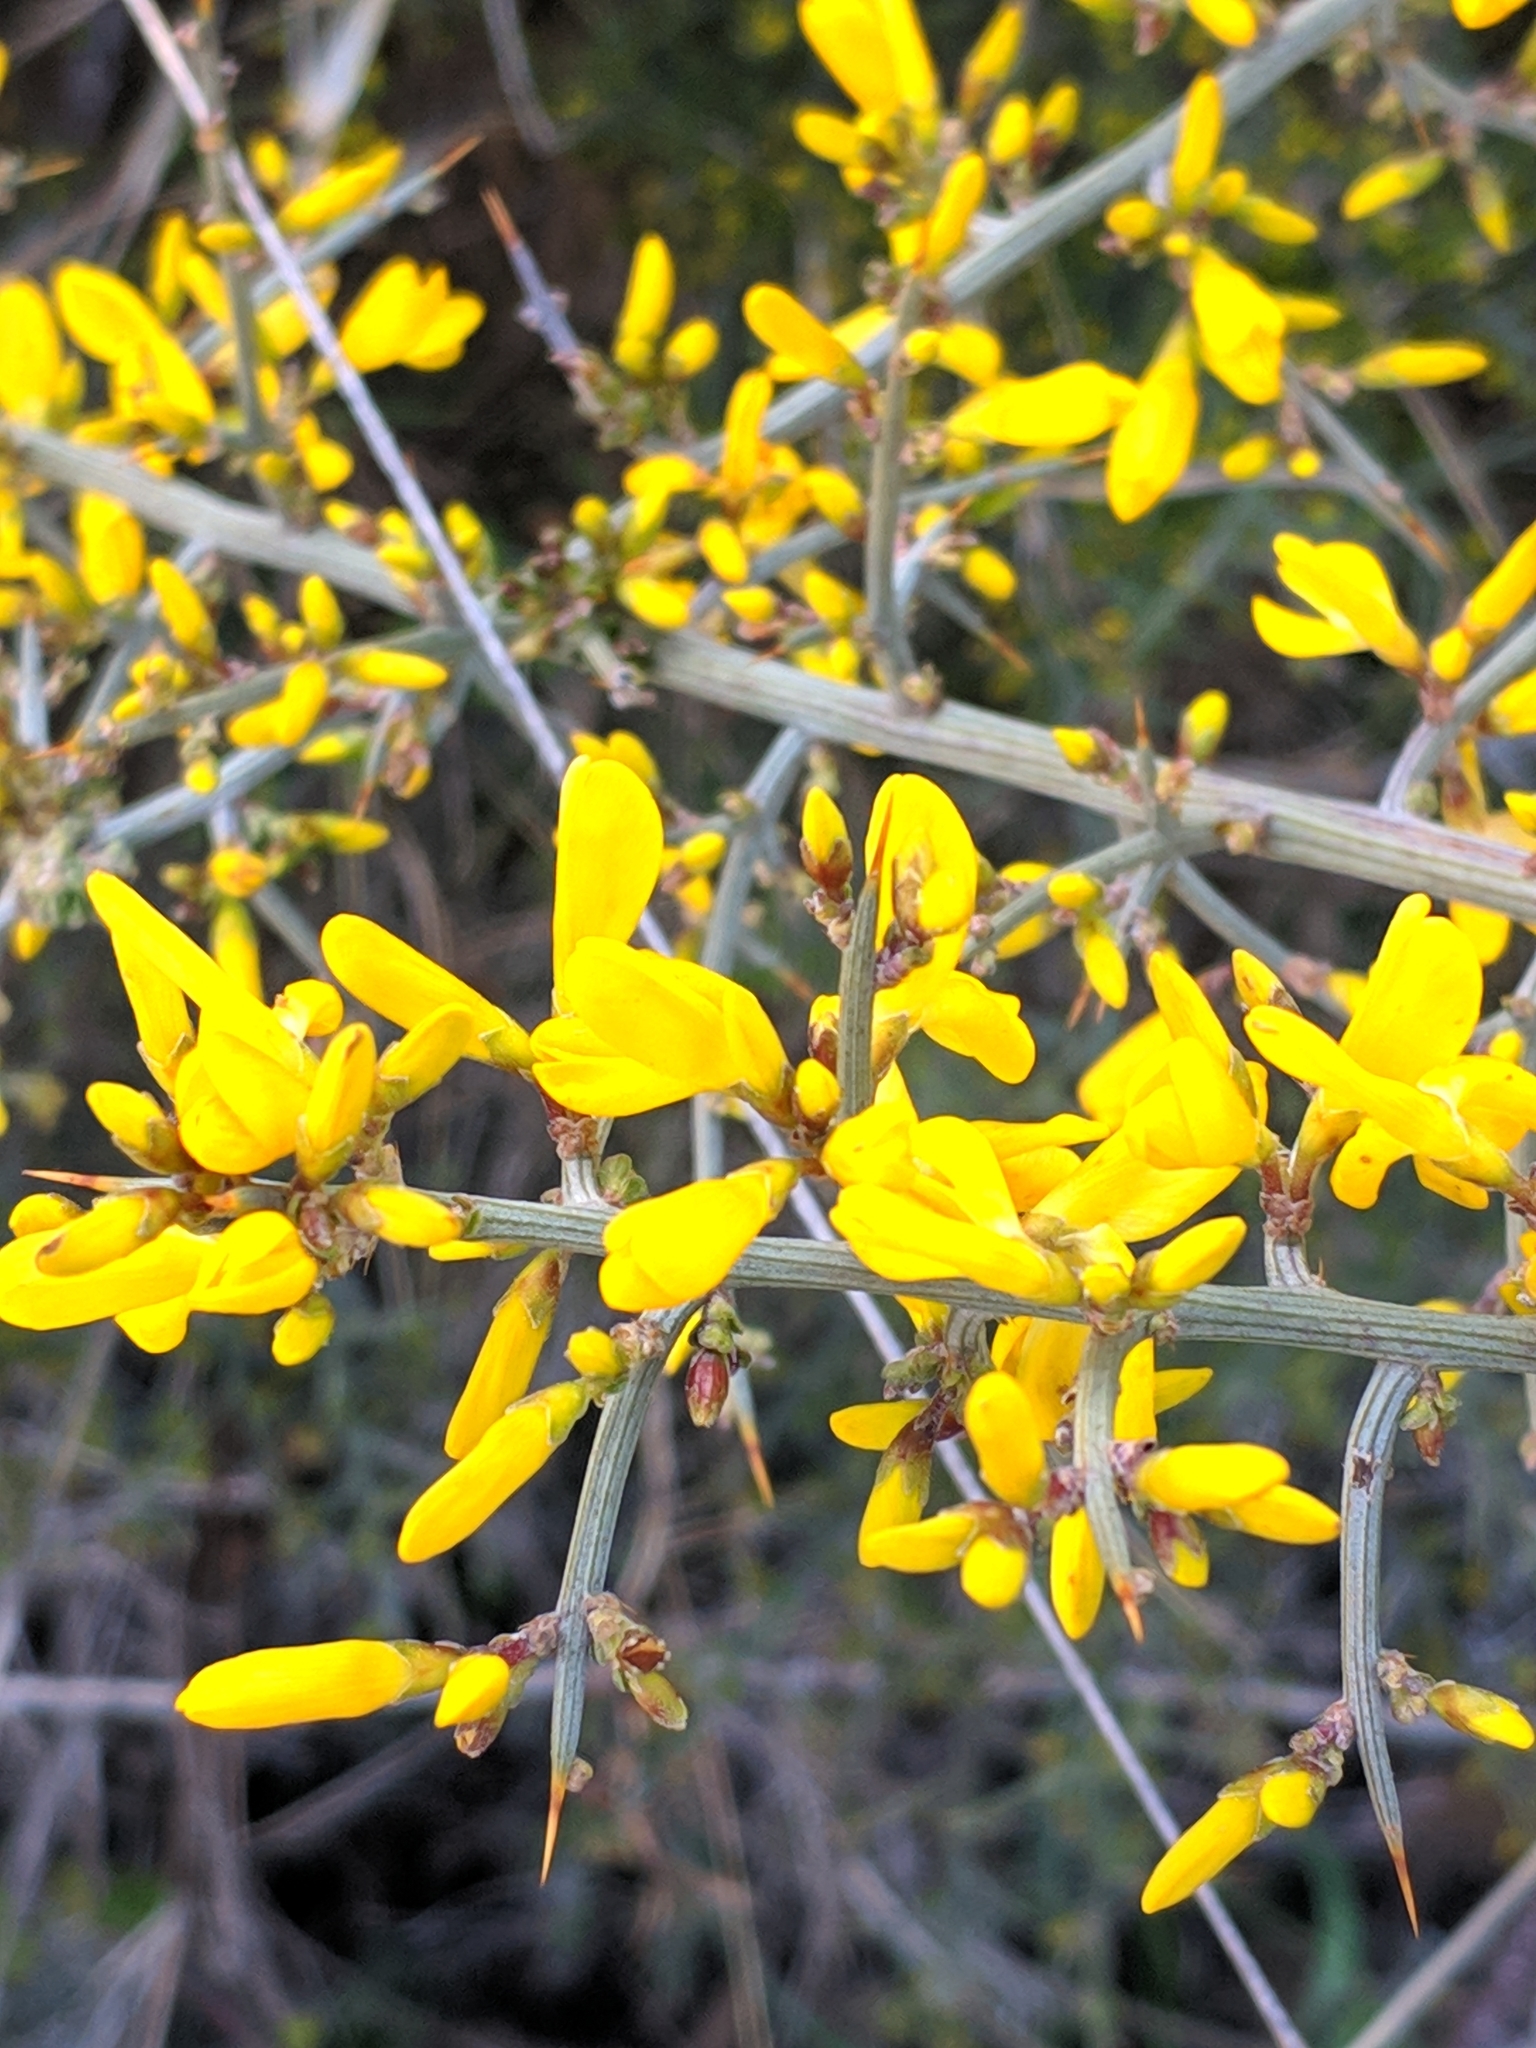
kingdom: Plantae
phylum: Tracheophyta
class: Magnoliopsida
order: Fabales
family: Fabaceae
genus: Genista
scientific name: Genista scorpius
